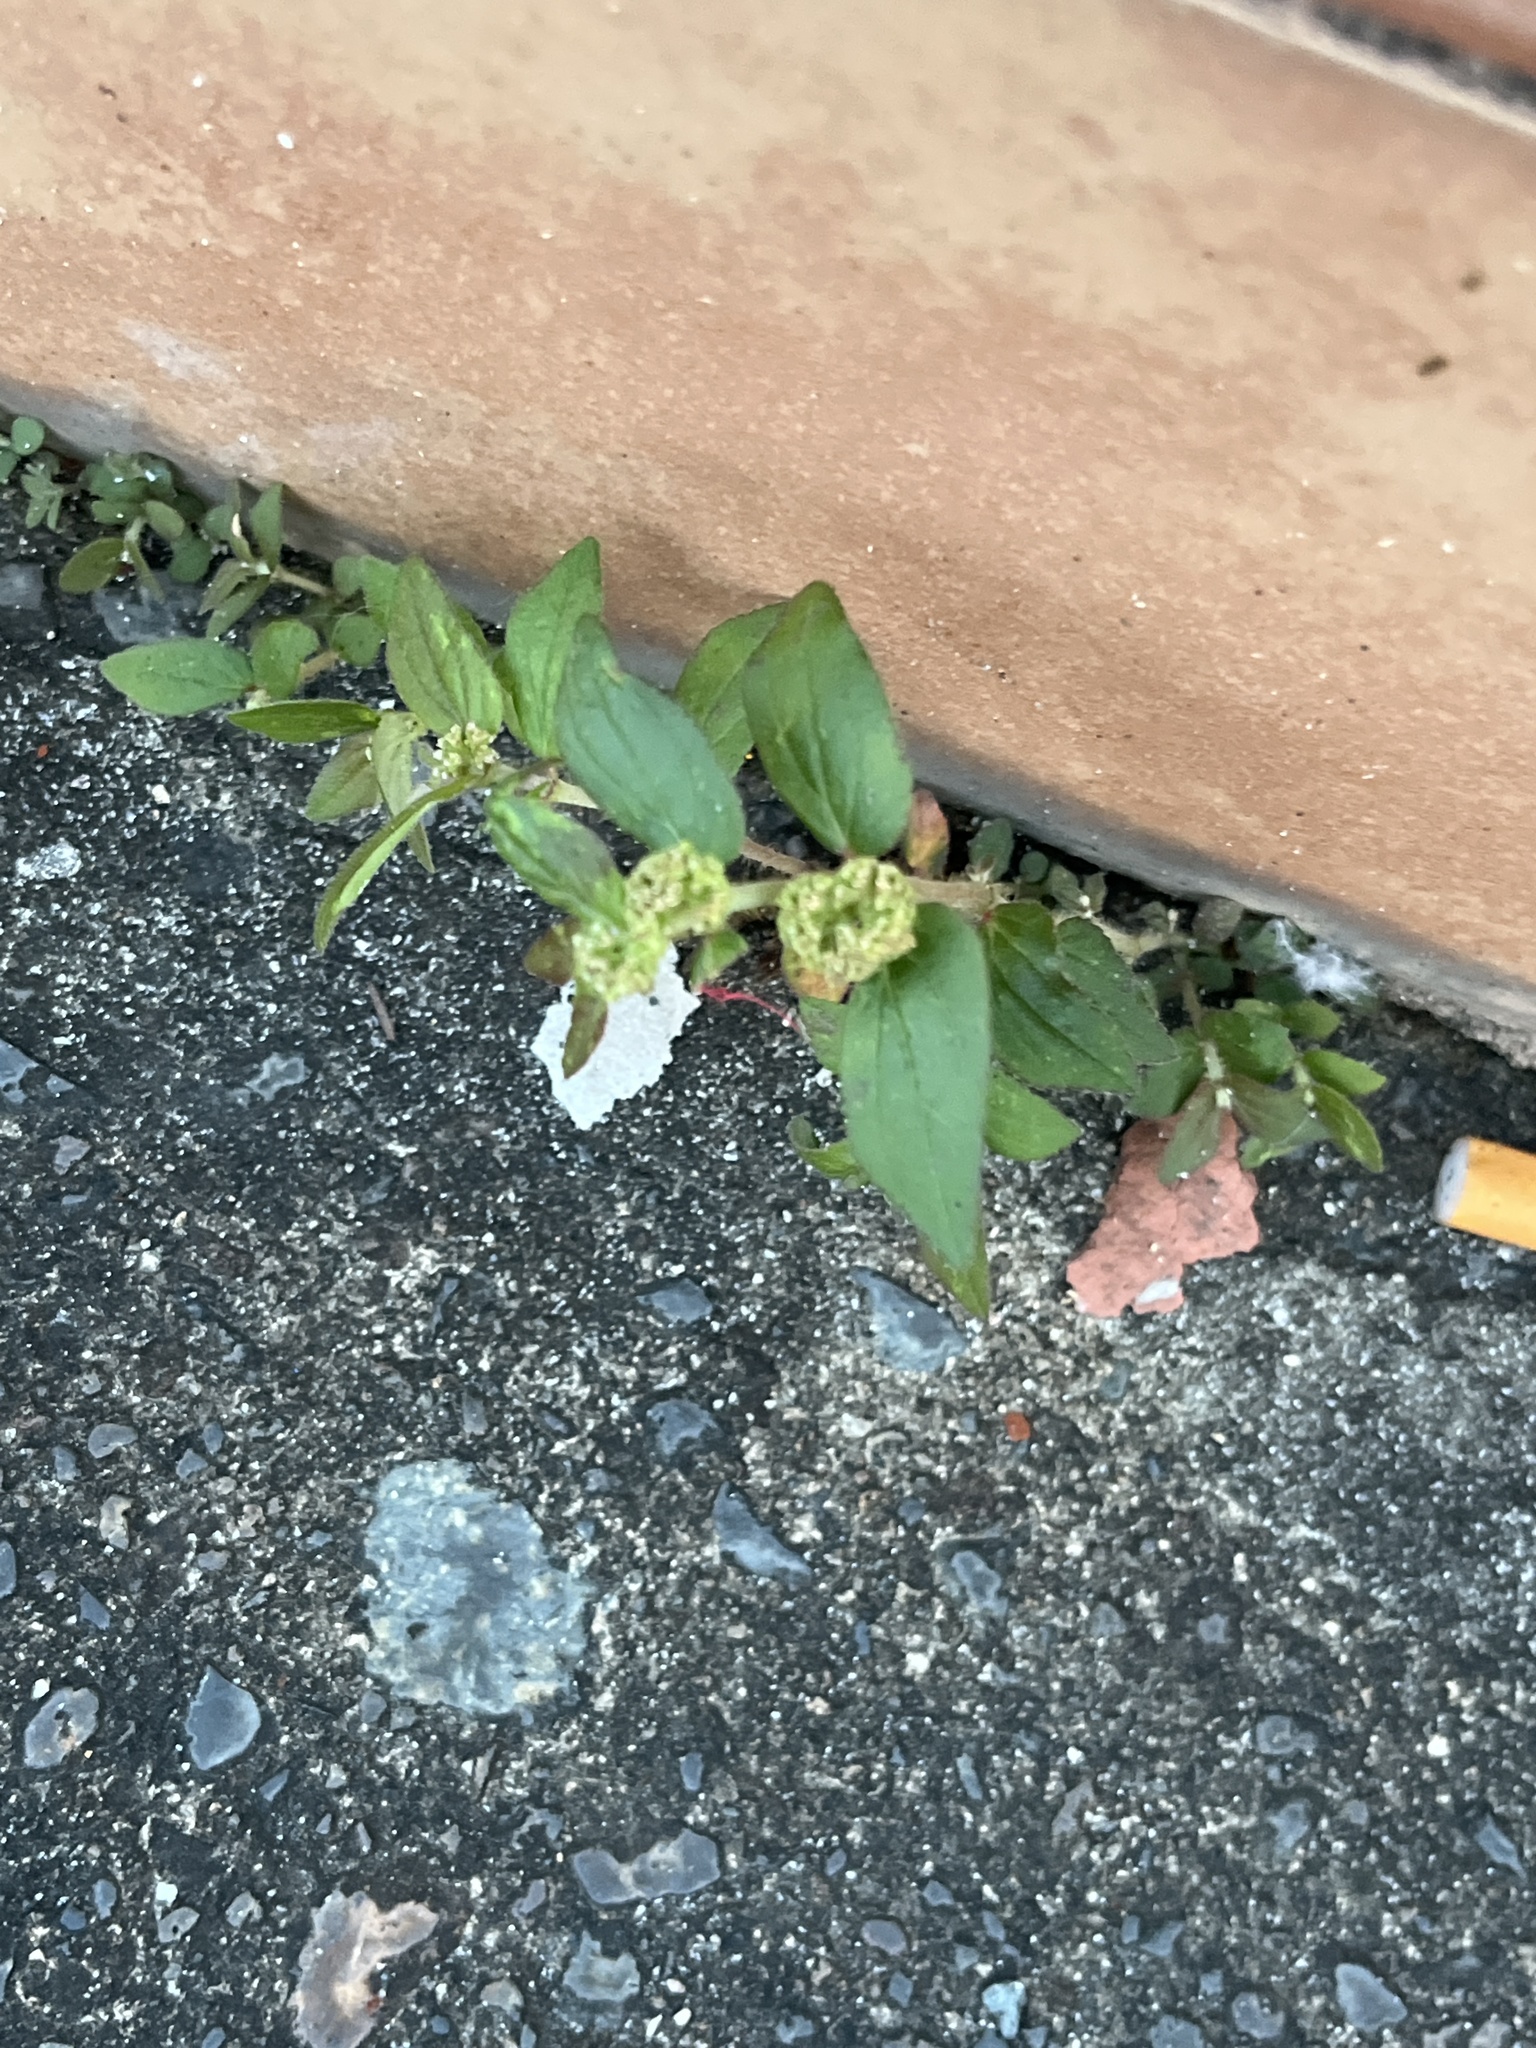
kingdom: Plantae
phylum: Tracheophyta
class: Magnoliopsida
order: Malpighiales
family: Euphorbiaceae
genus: Euphorbia
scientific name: Euphorbia hirta
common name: Pillpod sandmat
